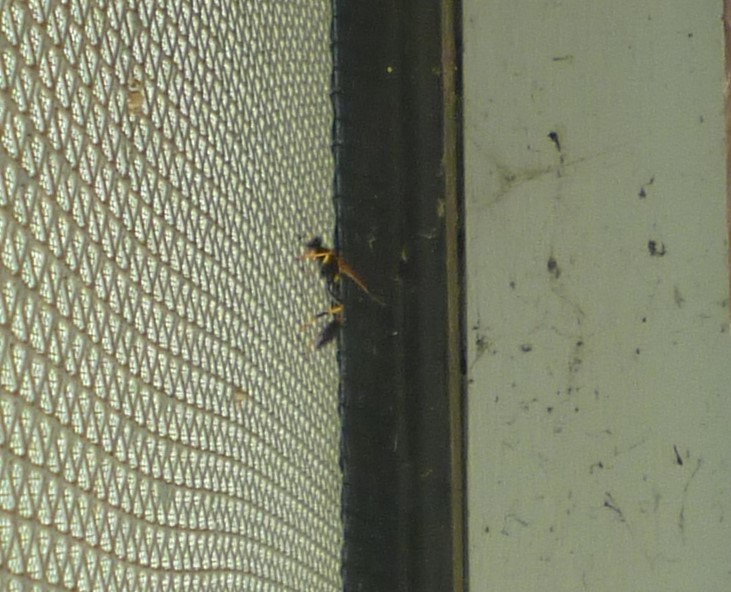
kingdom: Animalia
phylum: Arthropoda
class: Insecta
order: Hymenoptera
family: Sphecidae
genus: Sceliphron
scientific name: Sceliphron caementarium
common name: Mud dauber
